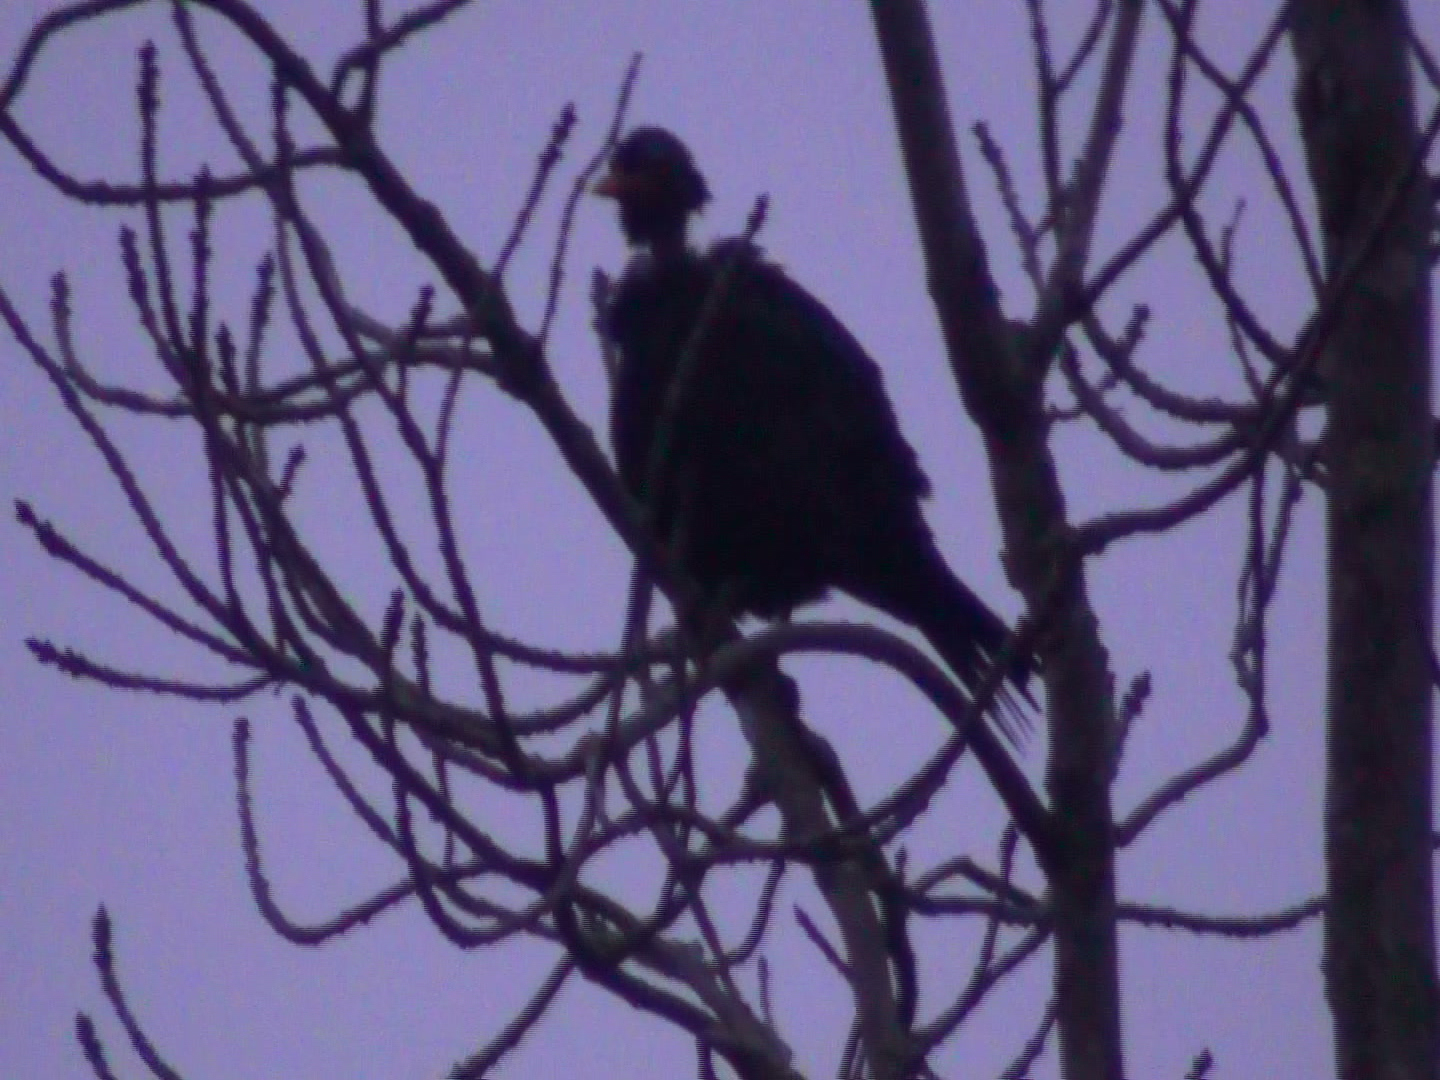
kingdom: Animalia
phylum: Chordata
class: Aves
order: Columbiformes
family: Columbidae
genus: Columba
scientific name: Columba palumbus
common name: Common wood pigeon
